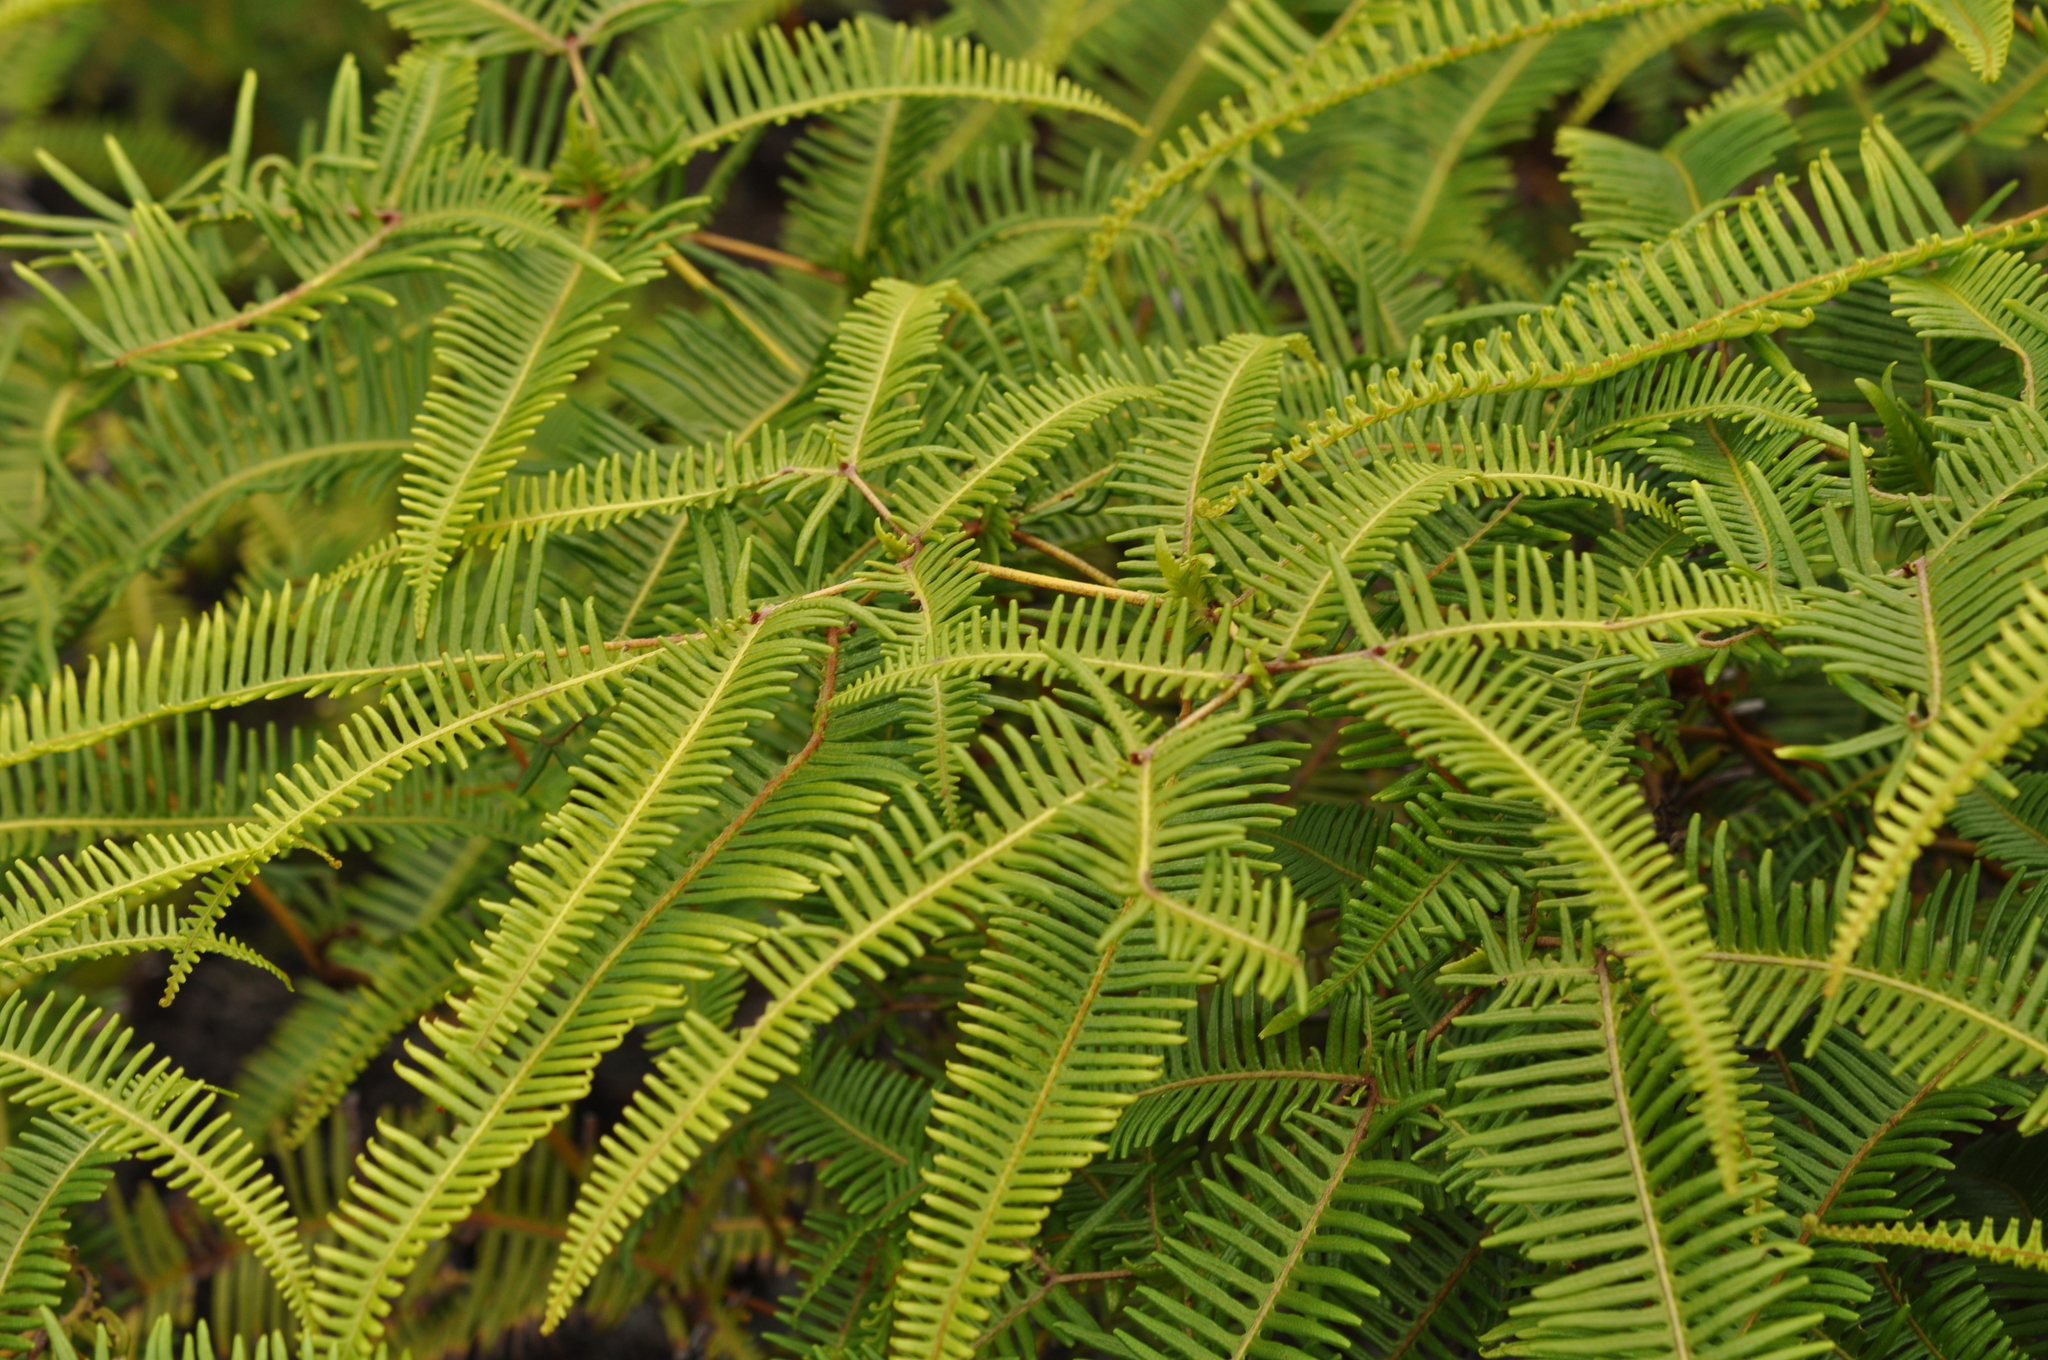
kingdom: Plantae
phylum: Tracheophyta
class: Polypodiopsida
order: Gleicheniales
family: Gleicheniaceae
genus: Dicranopteris
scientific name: Dicranopteris linearis
